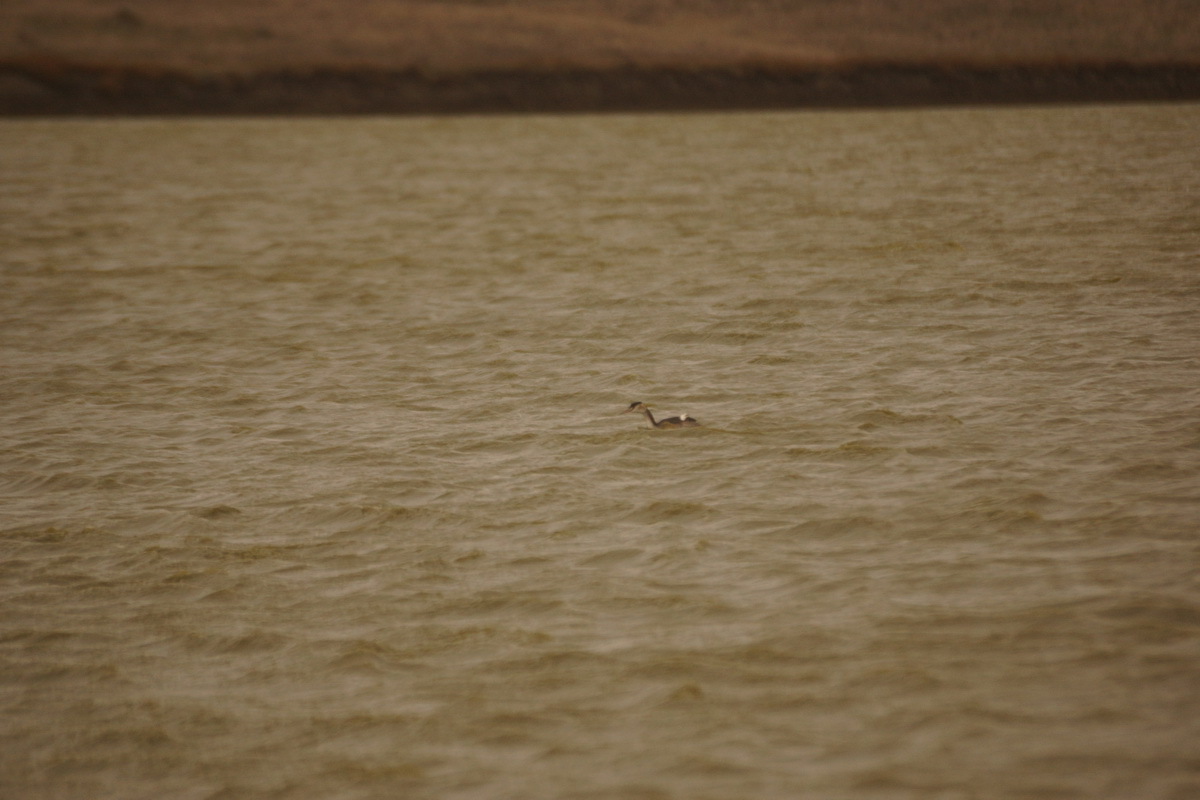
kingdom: Animalia
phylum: Chordata
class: Aves
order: Podicipediformes
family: Podicipedidae
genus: Podiceps
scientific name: Podiceps cristatus
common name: Great crested grebe
